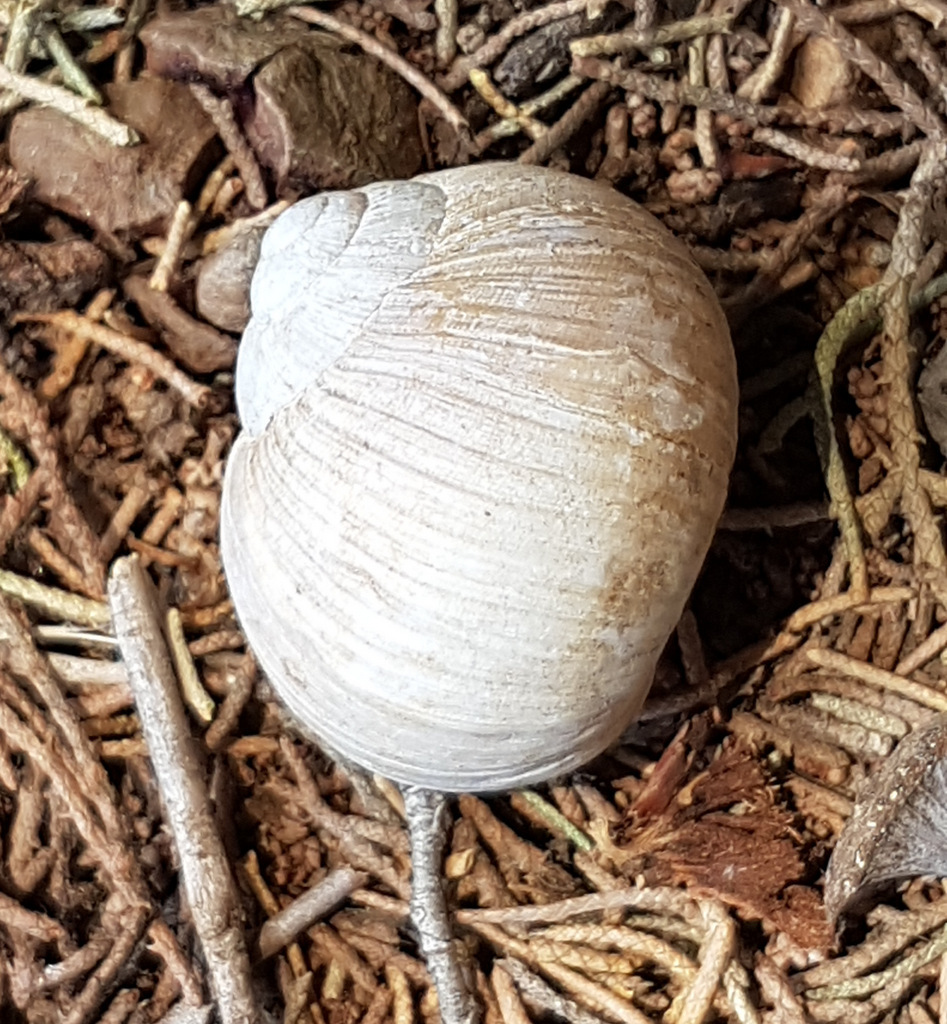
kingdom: Animalia
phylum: Mollusca
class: Gastropoda
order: Stylommatophora
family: Helicidae
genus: Helix
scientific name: Helix melanostoma
